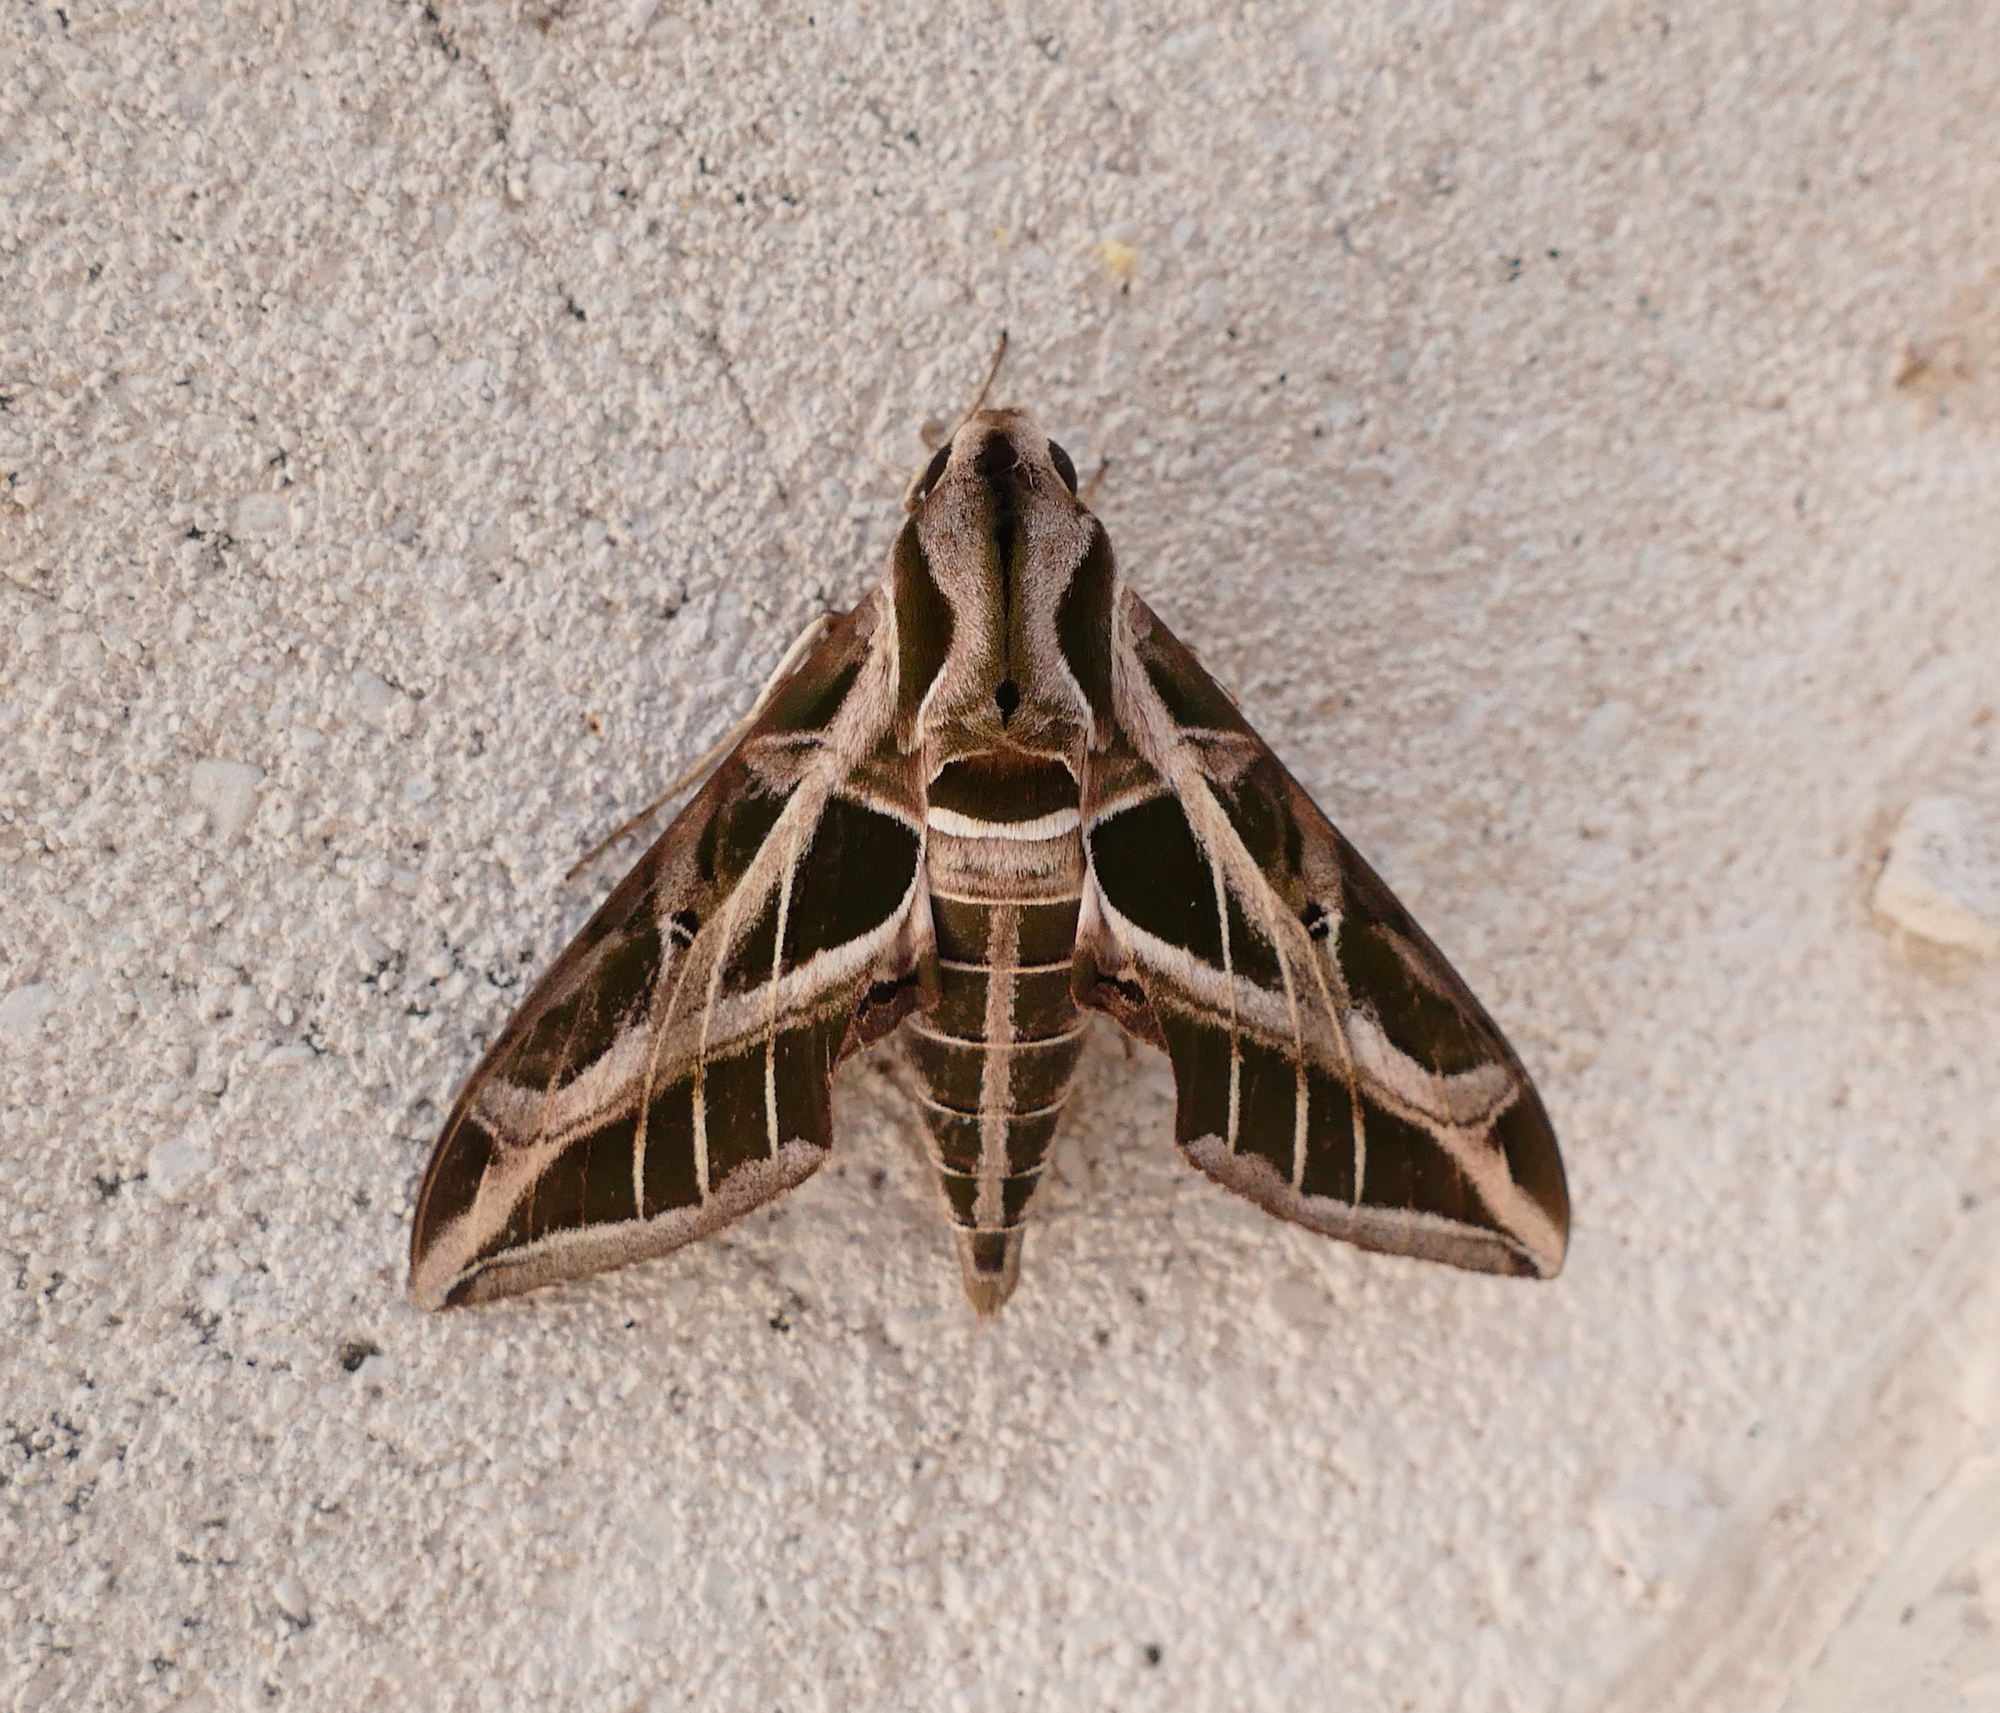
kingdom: Animalia
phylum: Arthropoda
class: Insecta
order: Lepidoptera
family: Sphingidae
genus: Eumorpha
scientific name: Eumorpha vitis
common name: Vine sphinx
